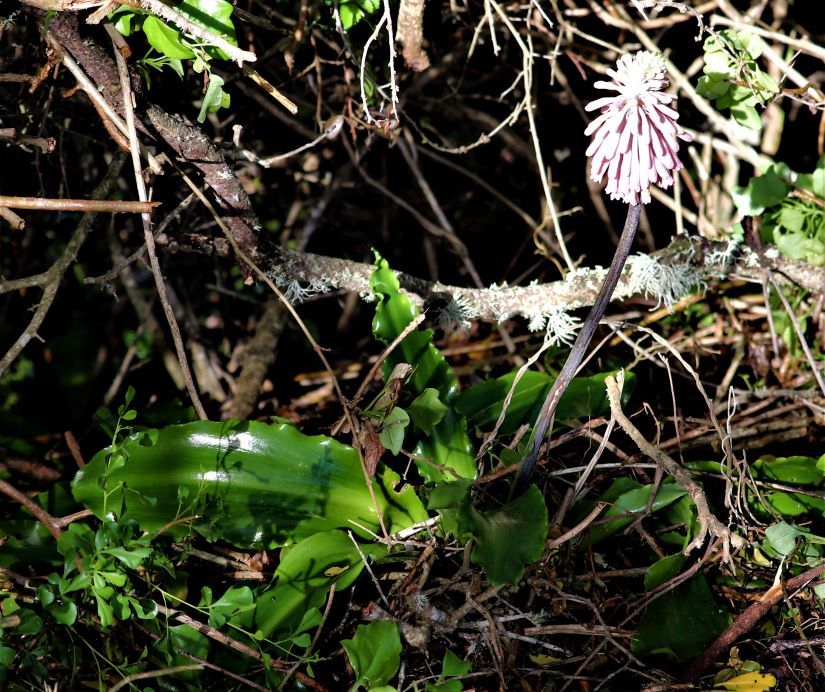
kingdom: Plantae
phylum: Tracheophyta
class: Liliopsida
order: Asparagales
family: Asparagaceae
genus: Veltheimia
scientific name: Veltheimia bracteata
